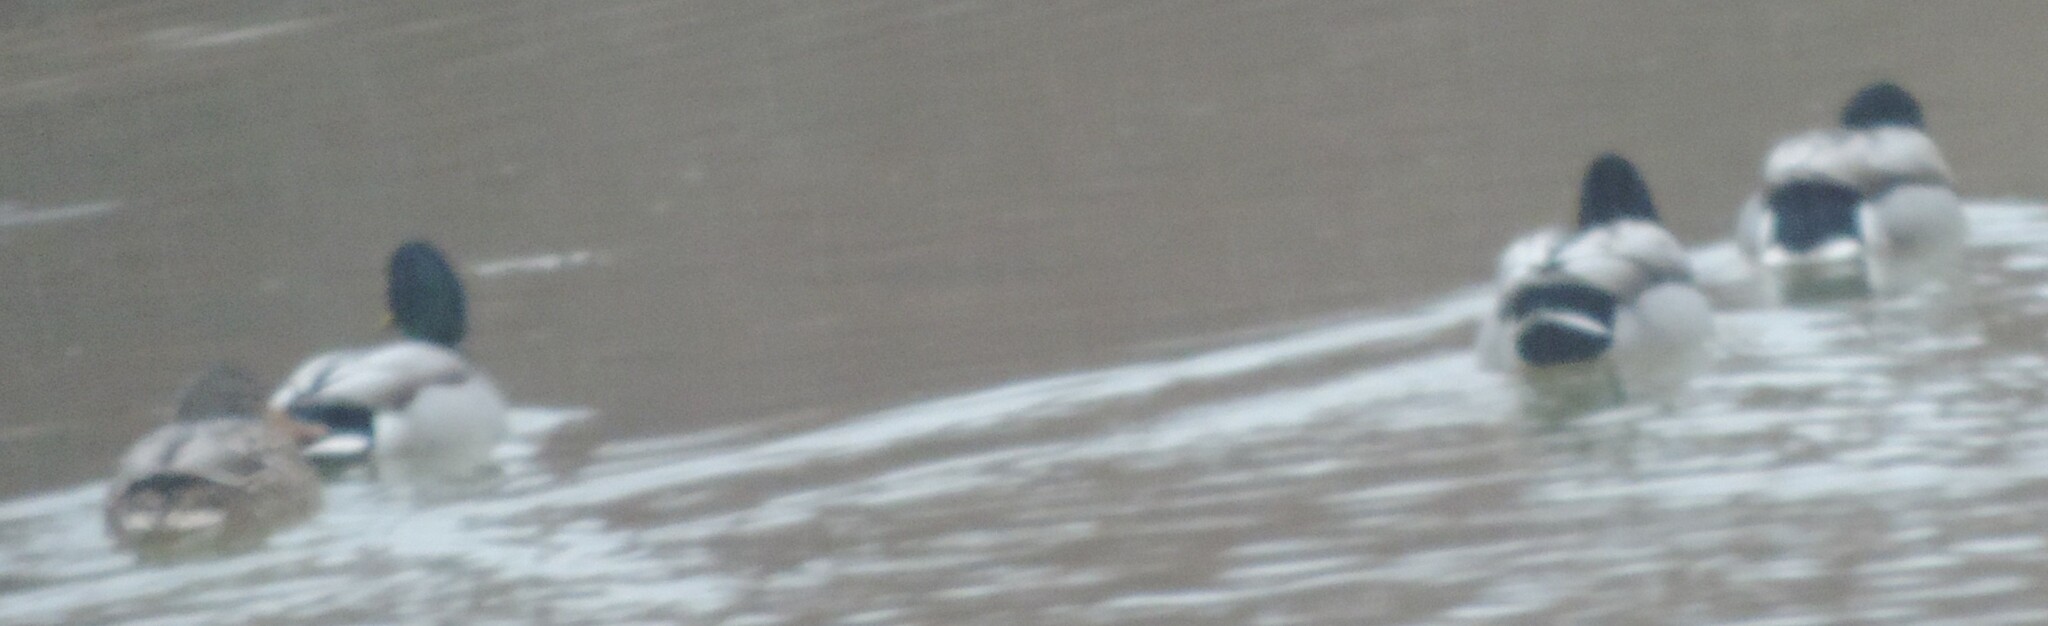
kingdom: Animalia
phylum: Chordata
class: Aves
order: Anseriformes
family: Anatidae
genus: Anas
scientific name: Anas platyrhynchos
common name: Mallard
